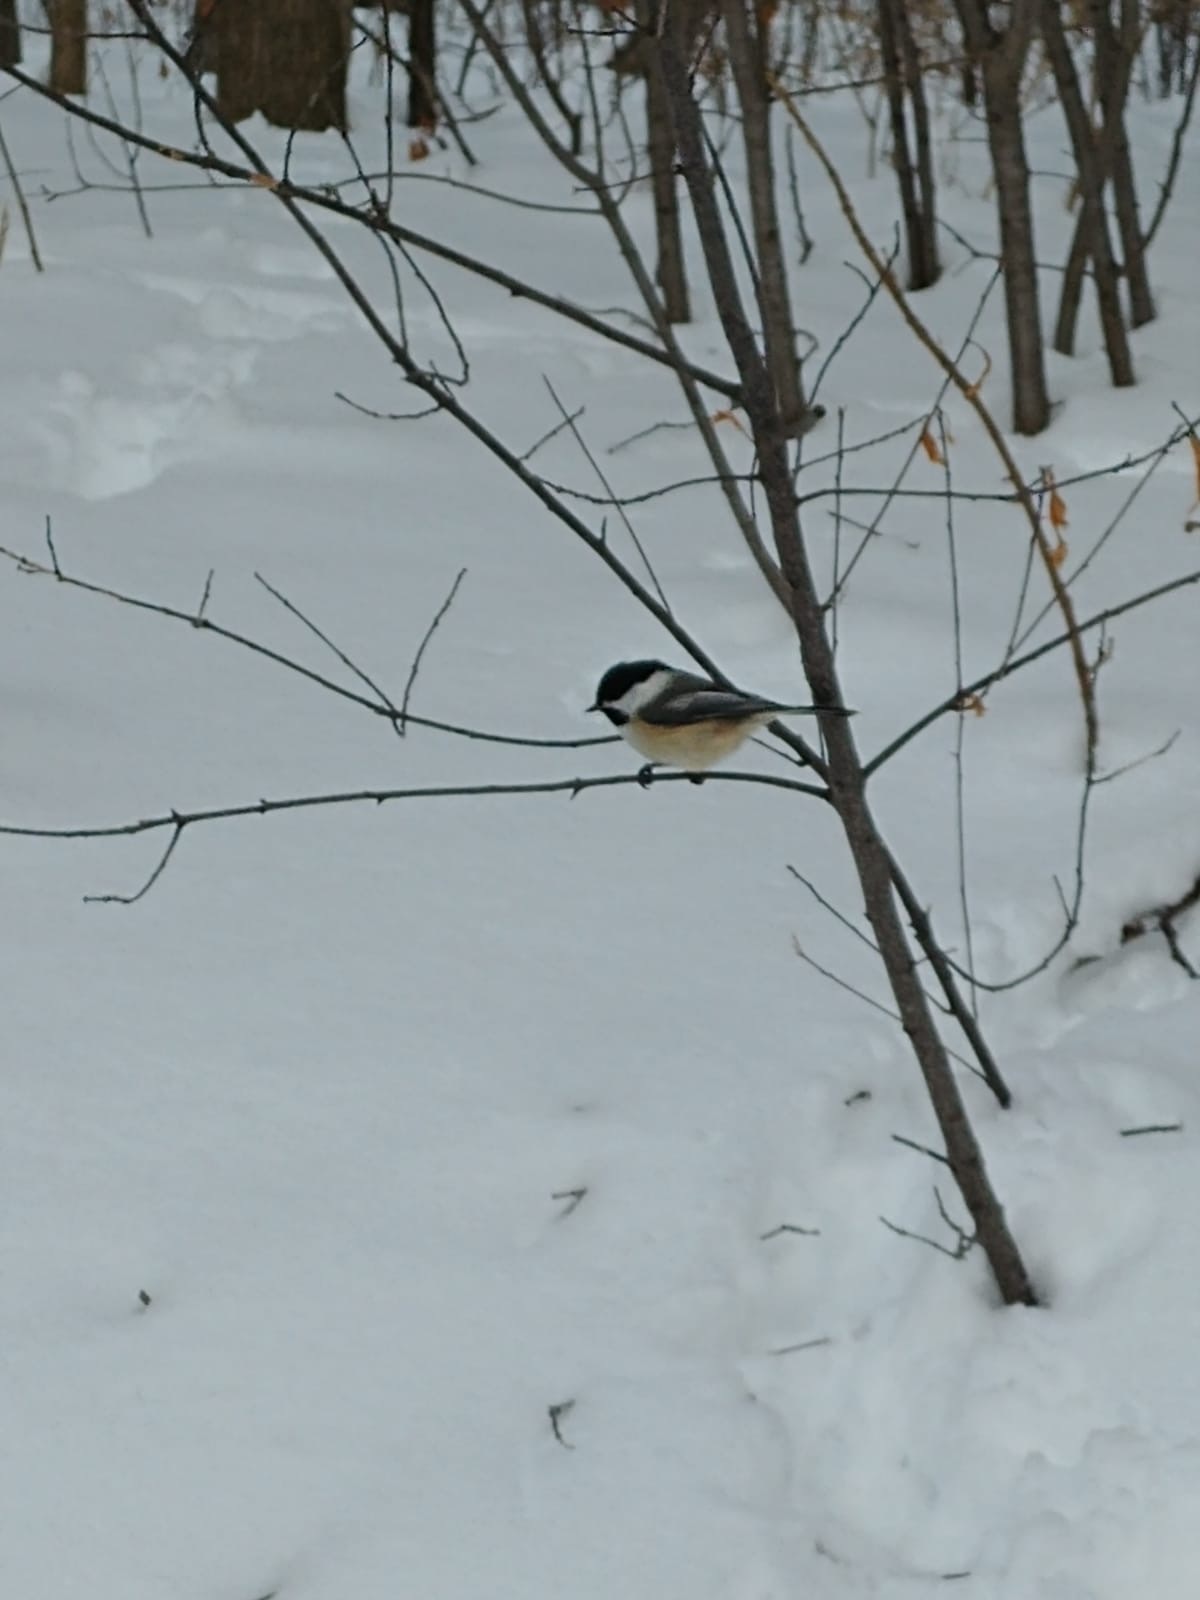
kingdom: Animalia
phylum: Chordata
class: Aves
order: Passeriformes
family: Paridae
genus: Poecile
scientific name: Poecile atricapillus
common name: Black-capped chickadee
